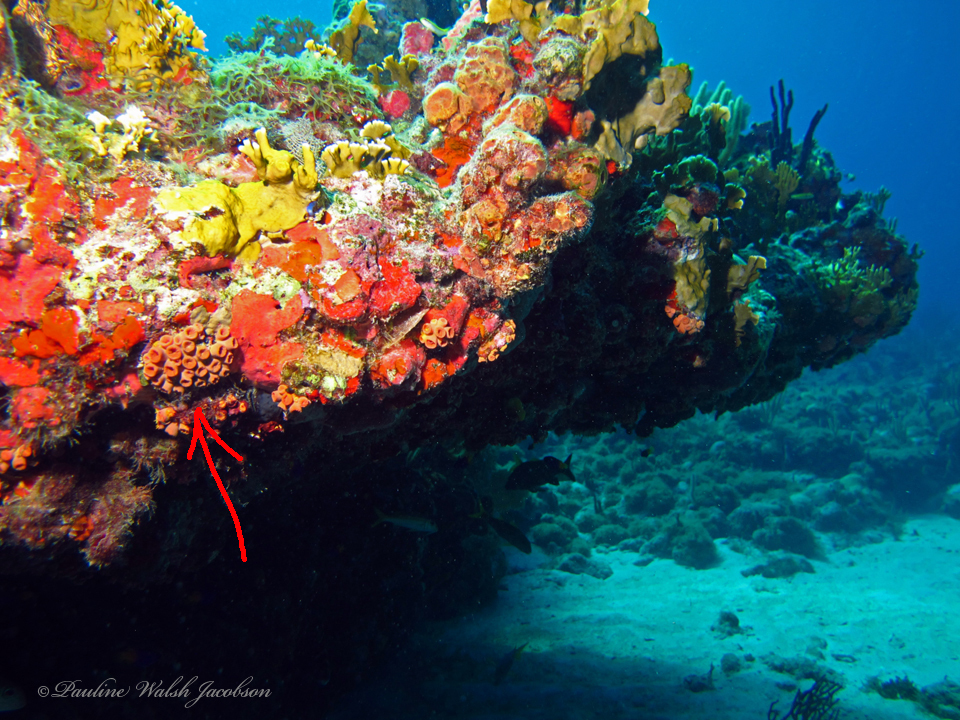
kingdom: Animalia
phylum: Cnidaria
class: Anthozoa
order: Scleractinia
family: Dendrophylliidae
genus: Tubastraea
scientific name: Tubastraea tagusensis
